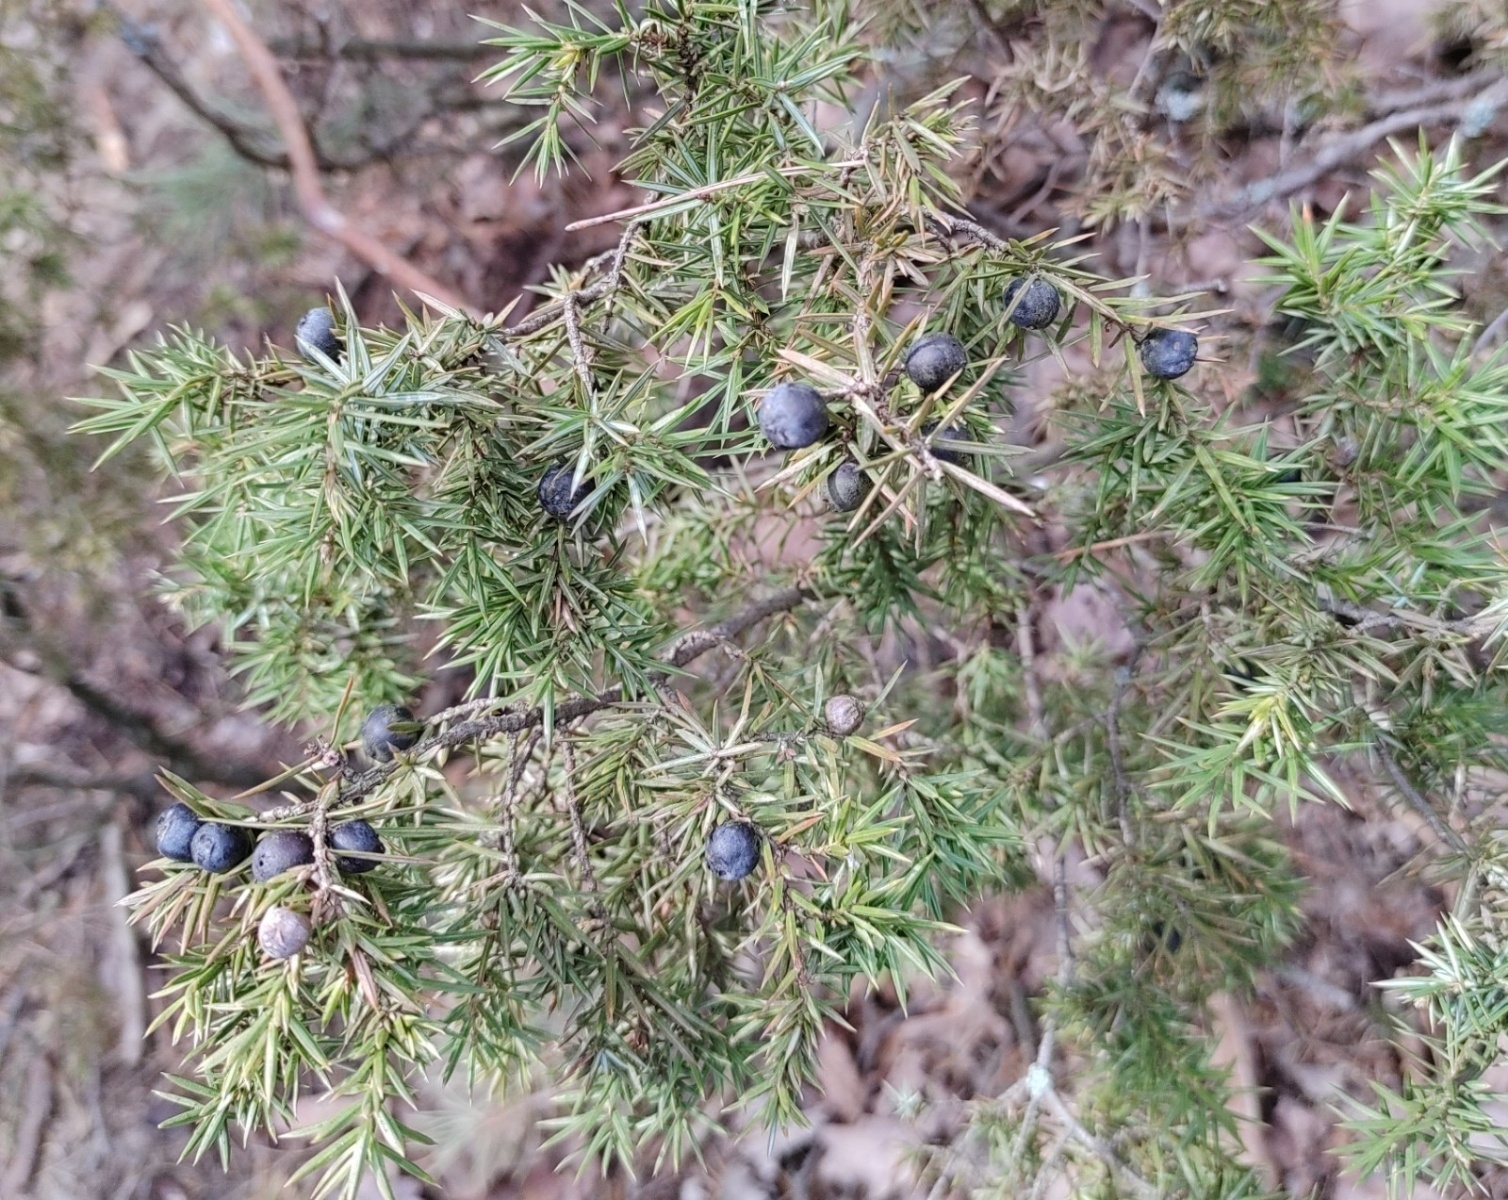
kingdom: Plantae
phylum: Tracheophyta
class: Pinopsida
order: Pinales
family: Cupressaceae
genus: Juniperus
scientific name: Juniperus communis
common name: Common juniper
